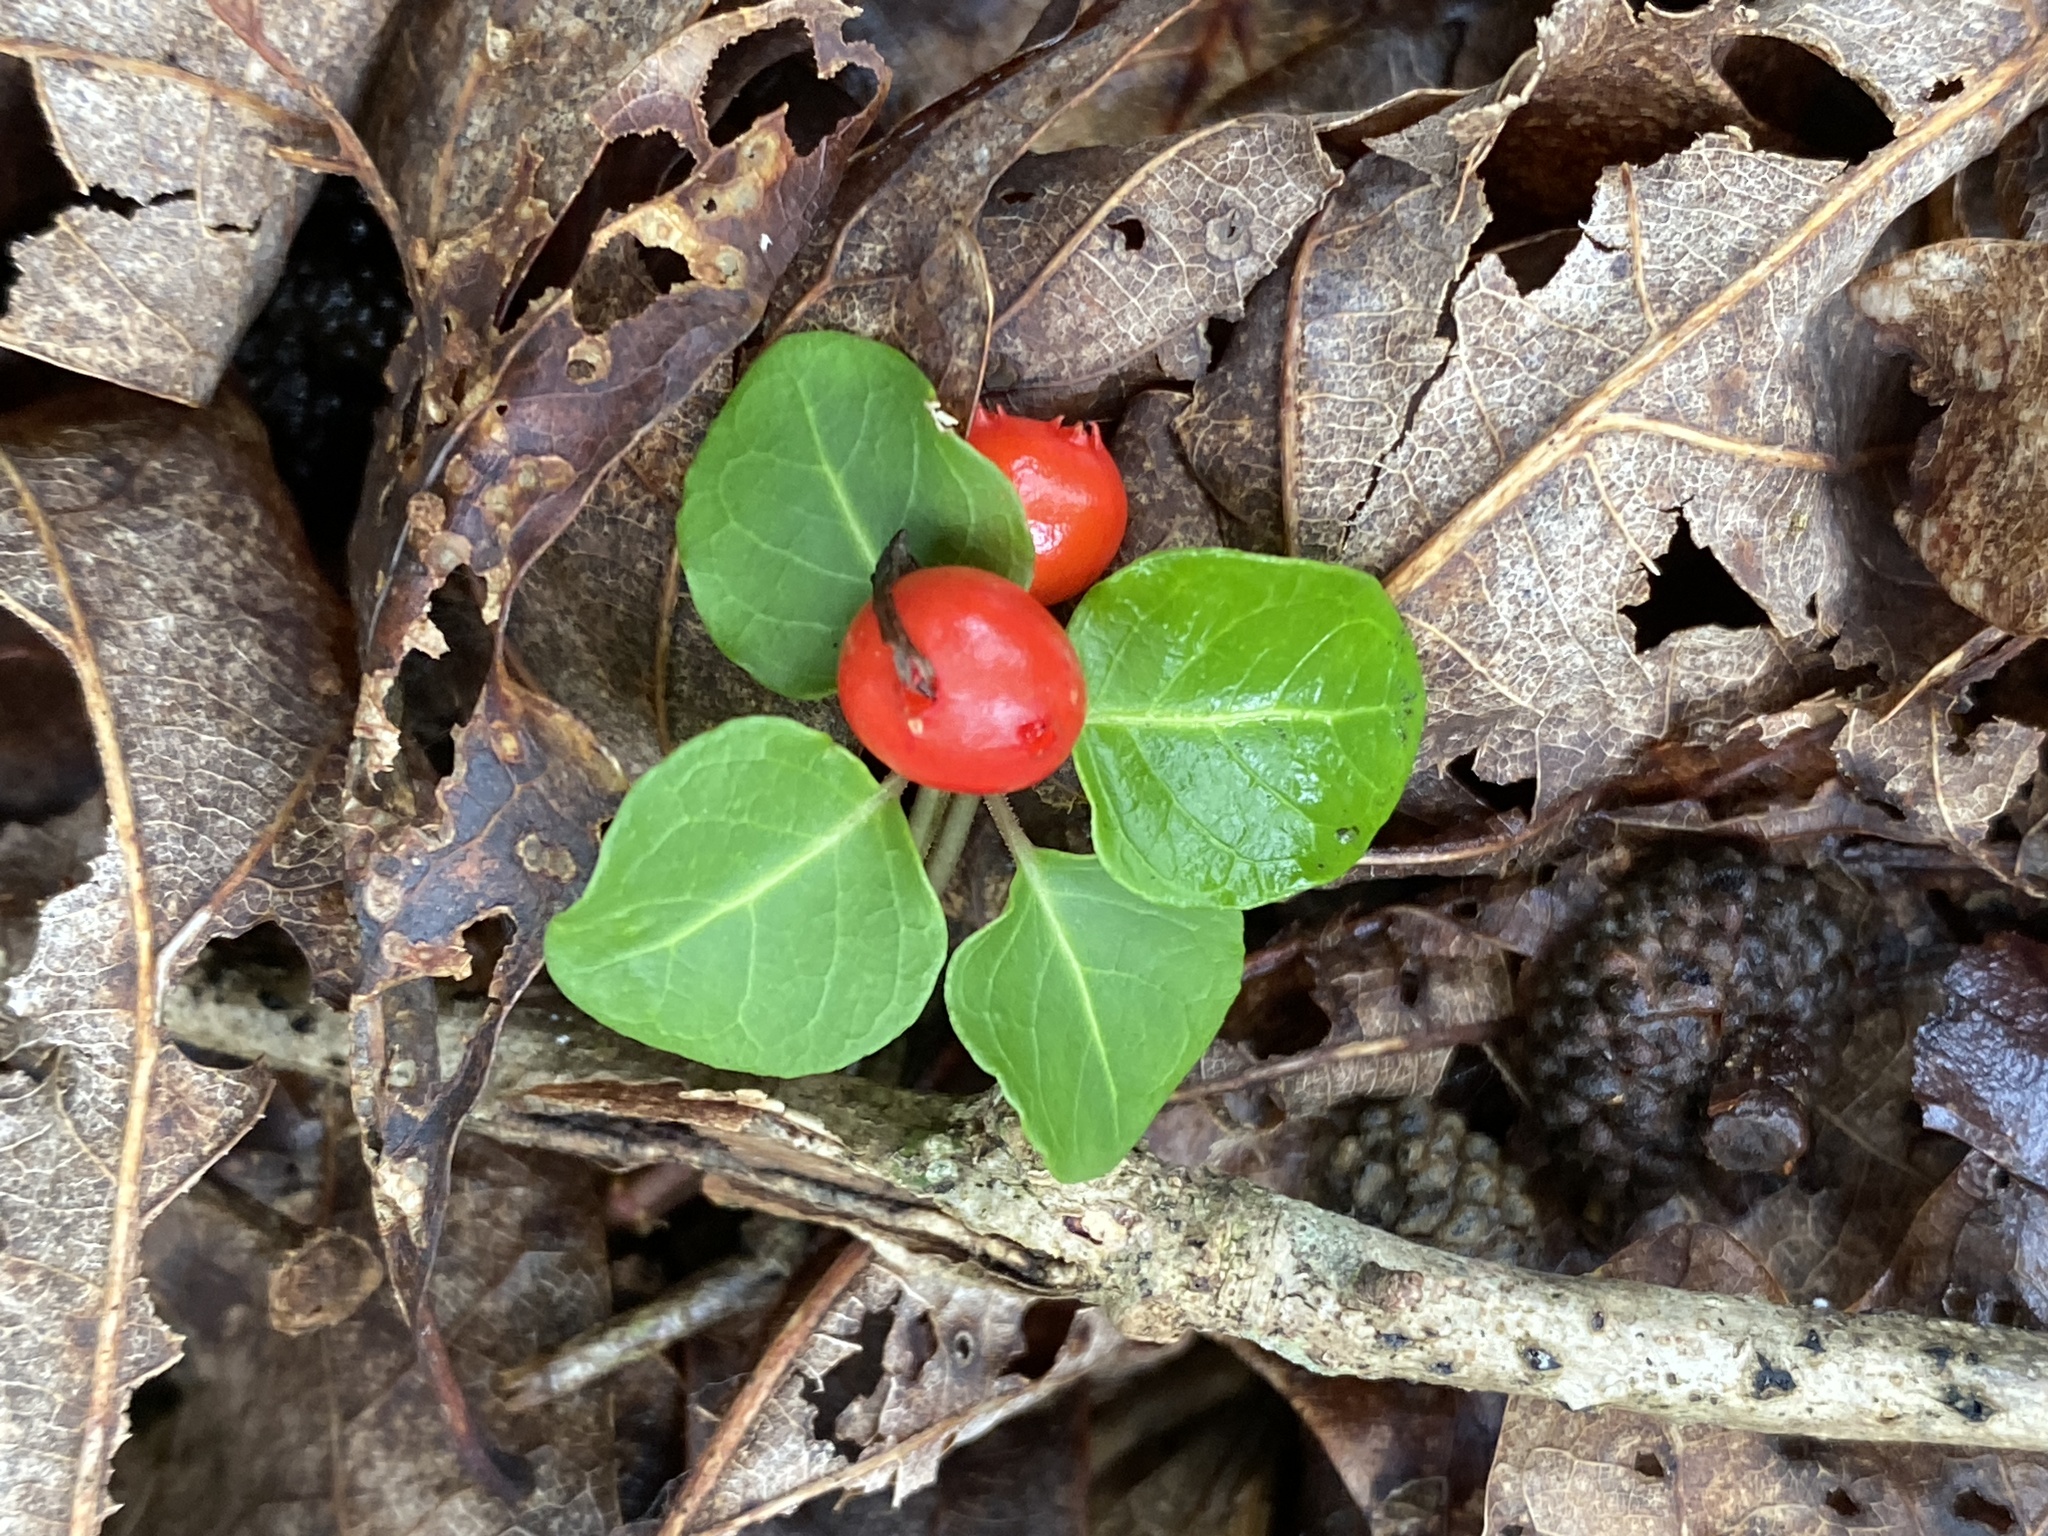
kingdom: Plantae
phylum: Tracheophyta
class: Magnoliopsida
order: Gentianales
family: Rubiaceae
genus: Mitchella
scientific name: Mitchella repens
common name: Partridge-berry
